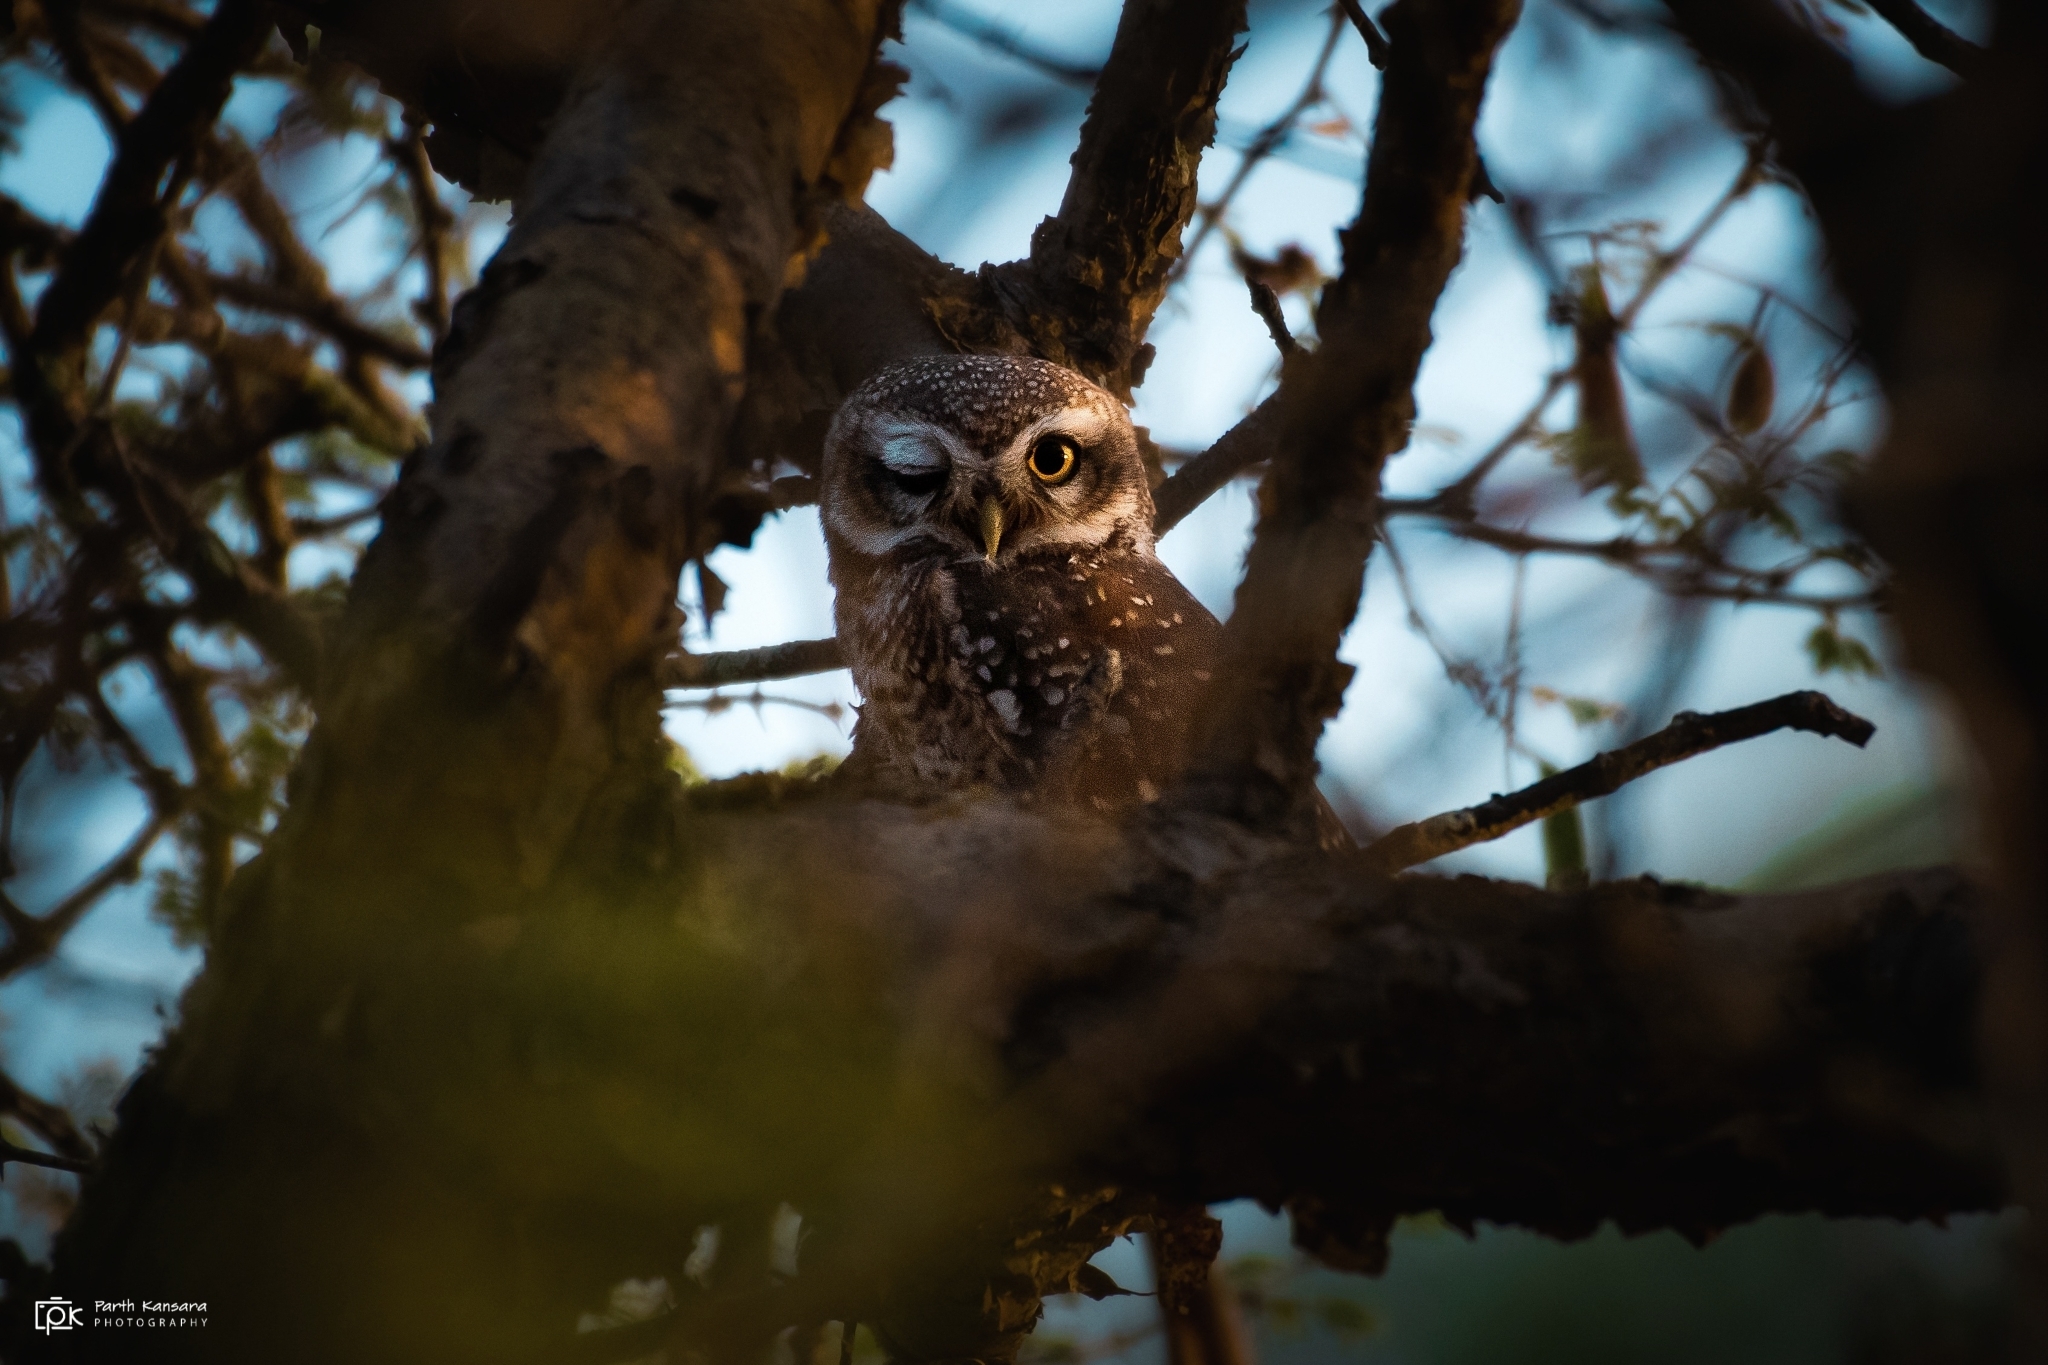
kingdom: Animalia
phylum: Chordata
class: Aves
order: Strigiformes
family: Strigidae
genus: Athene
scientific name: Athene brama
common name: Spotted owlet
